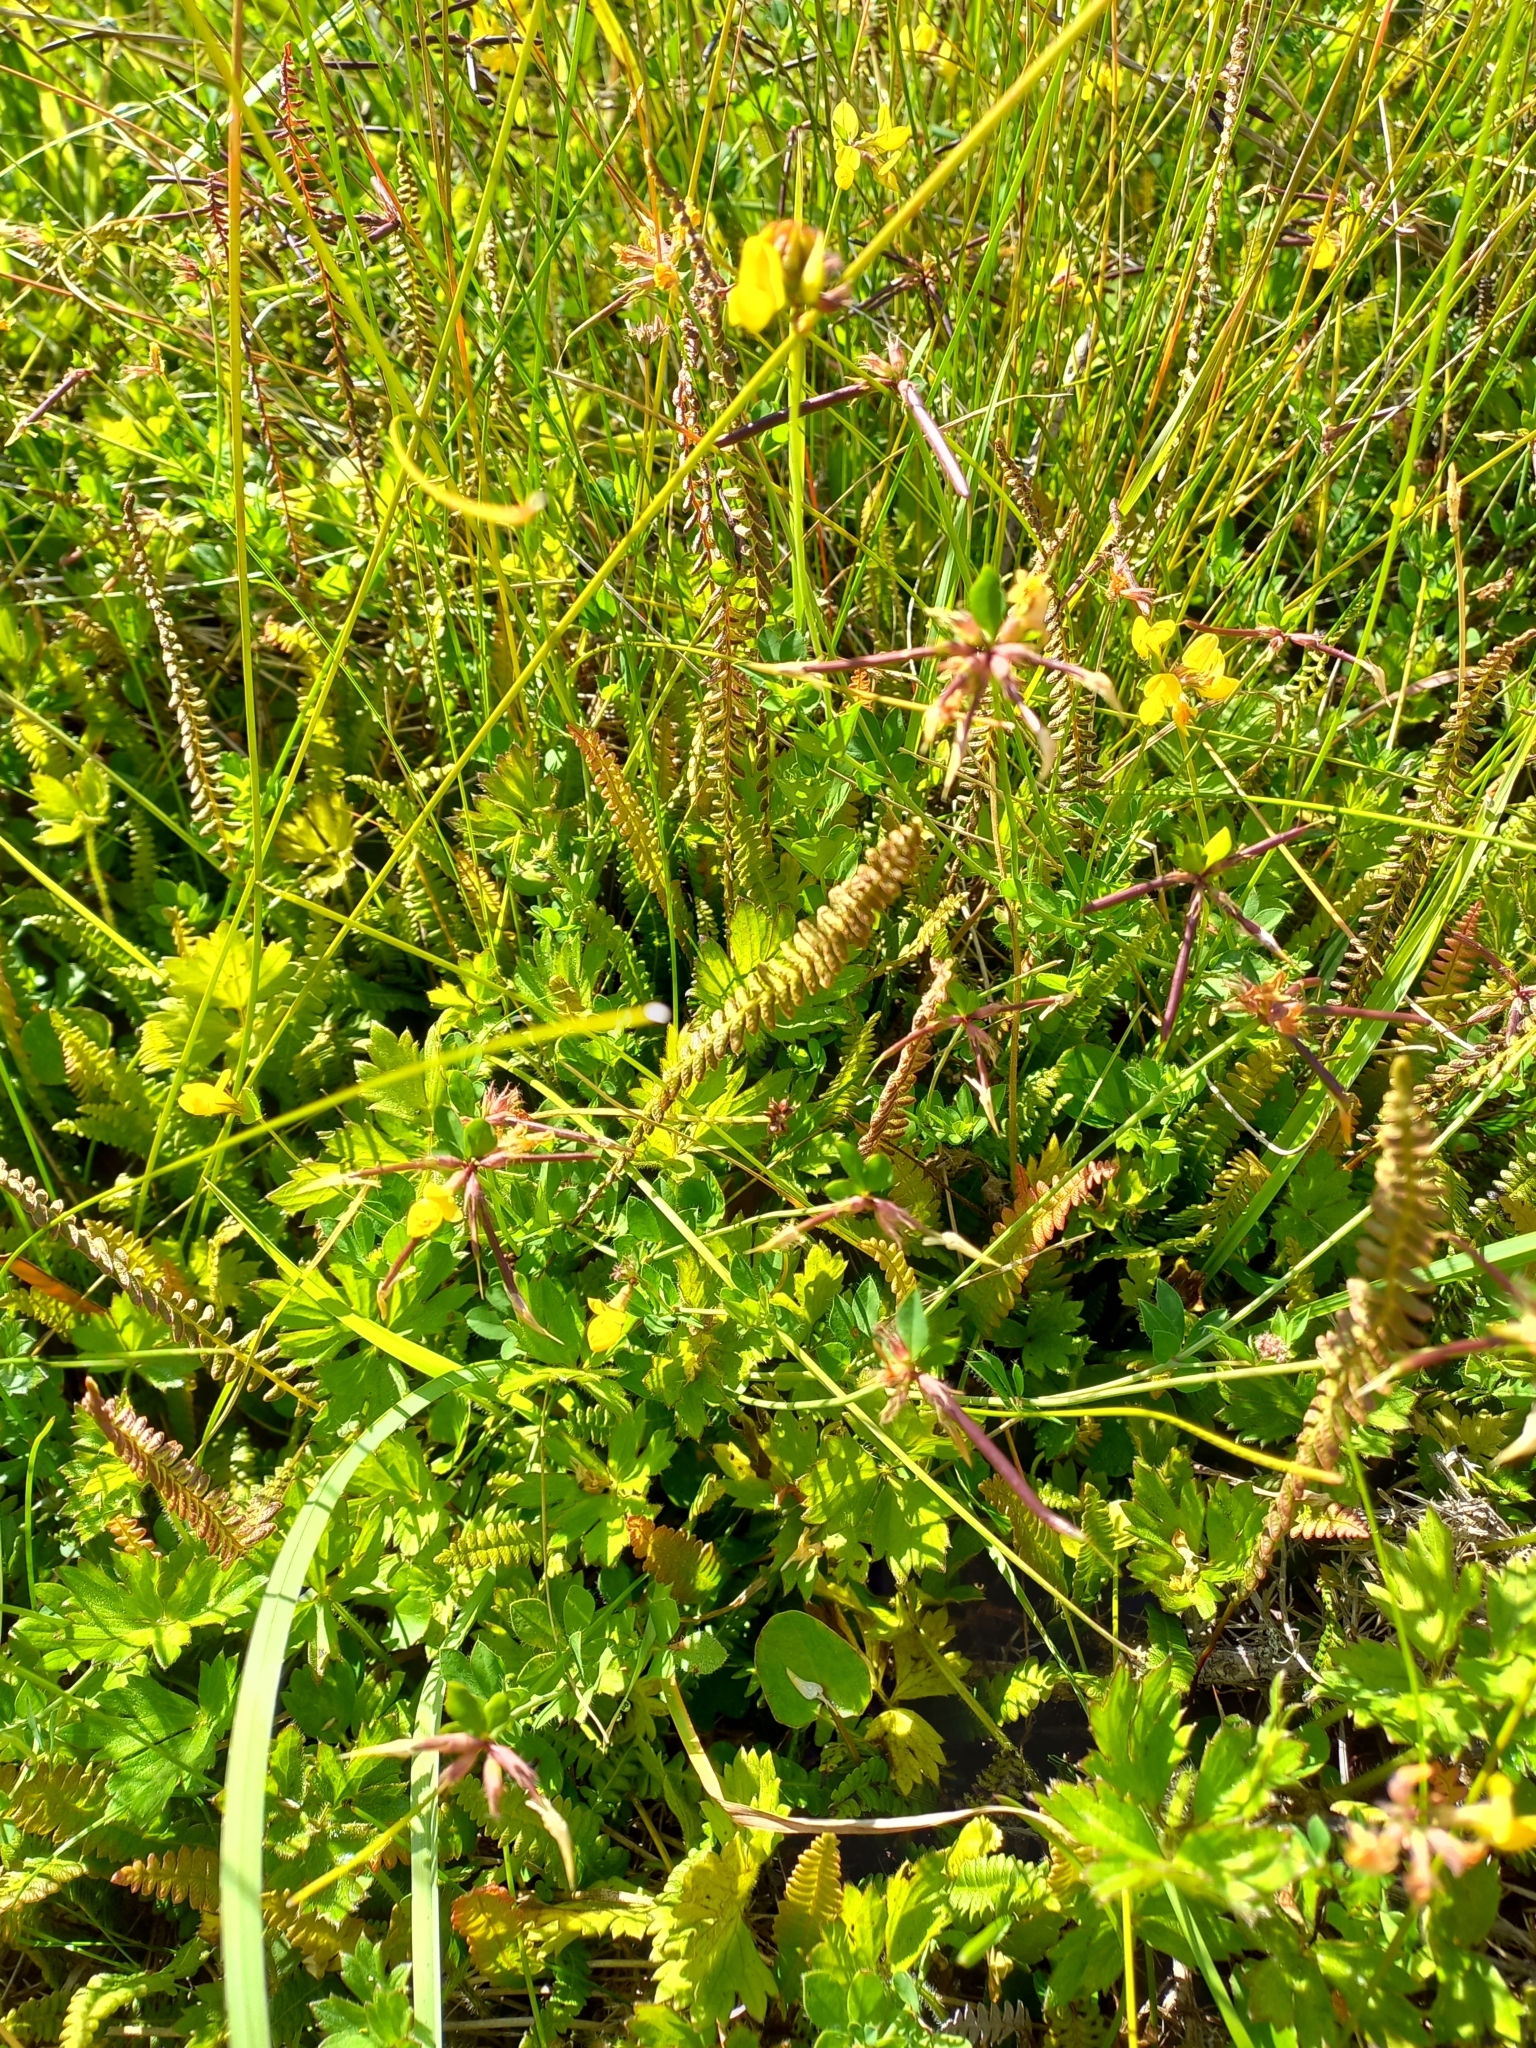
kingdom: Plantae
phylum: Tracheophyta
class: Polypodiopsida
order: Polypodiales
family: Blechnaceae
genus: Austroblechnum
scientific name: Austroblechnum penna-marina
